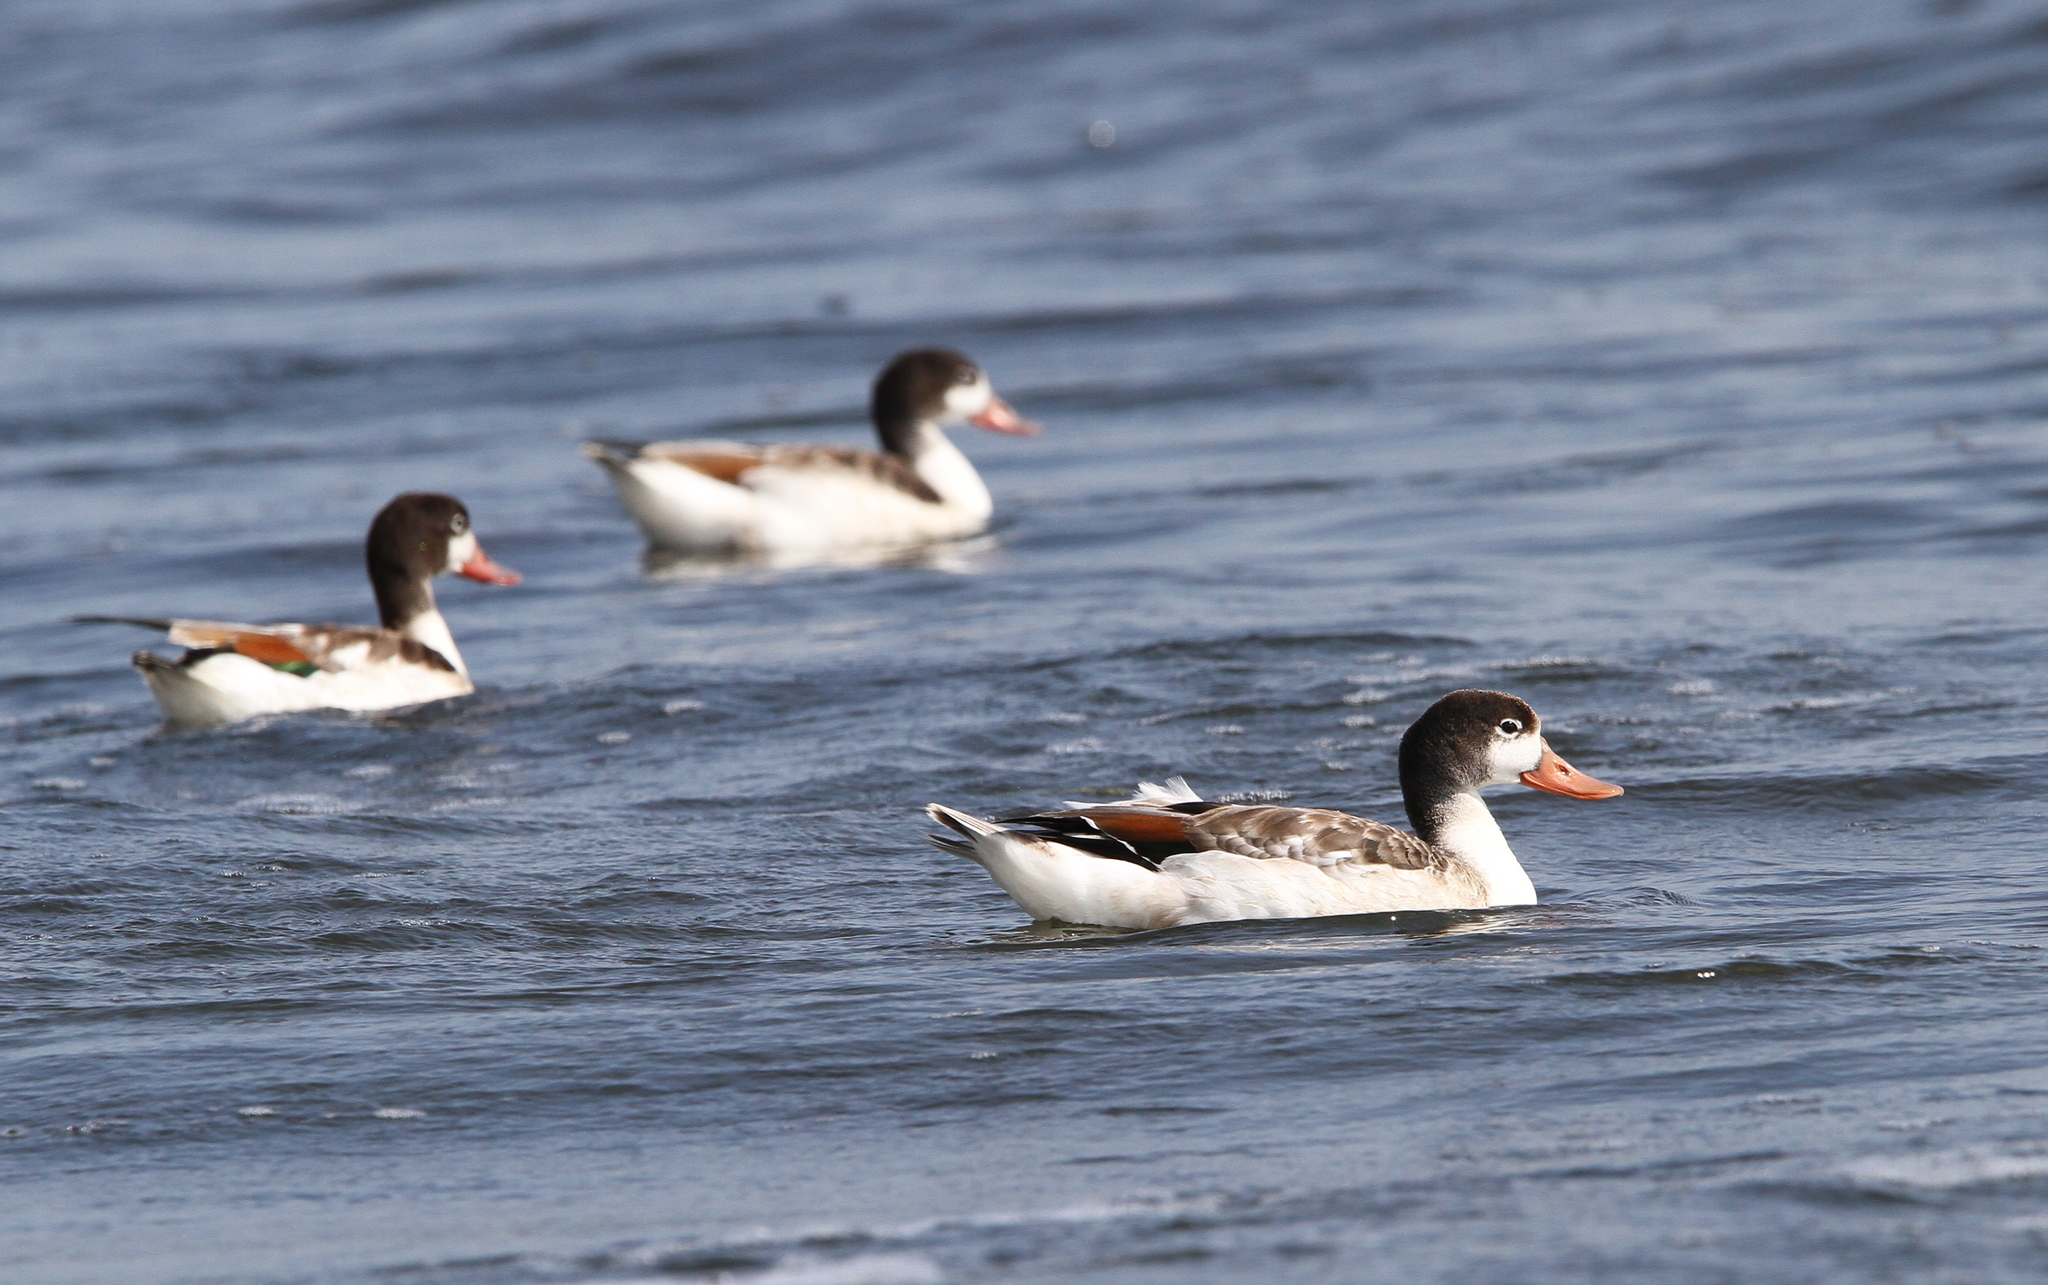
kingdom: Animalia
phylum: Chordata
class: Aves
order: Anseriformes
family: Anatidae
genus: Tadorna
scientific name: Tadorna tadorna
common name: Common shelduck
